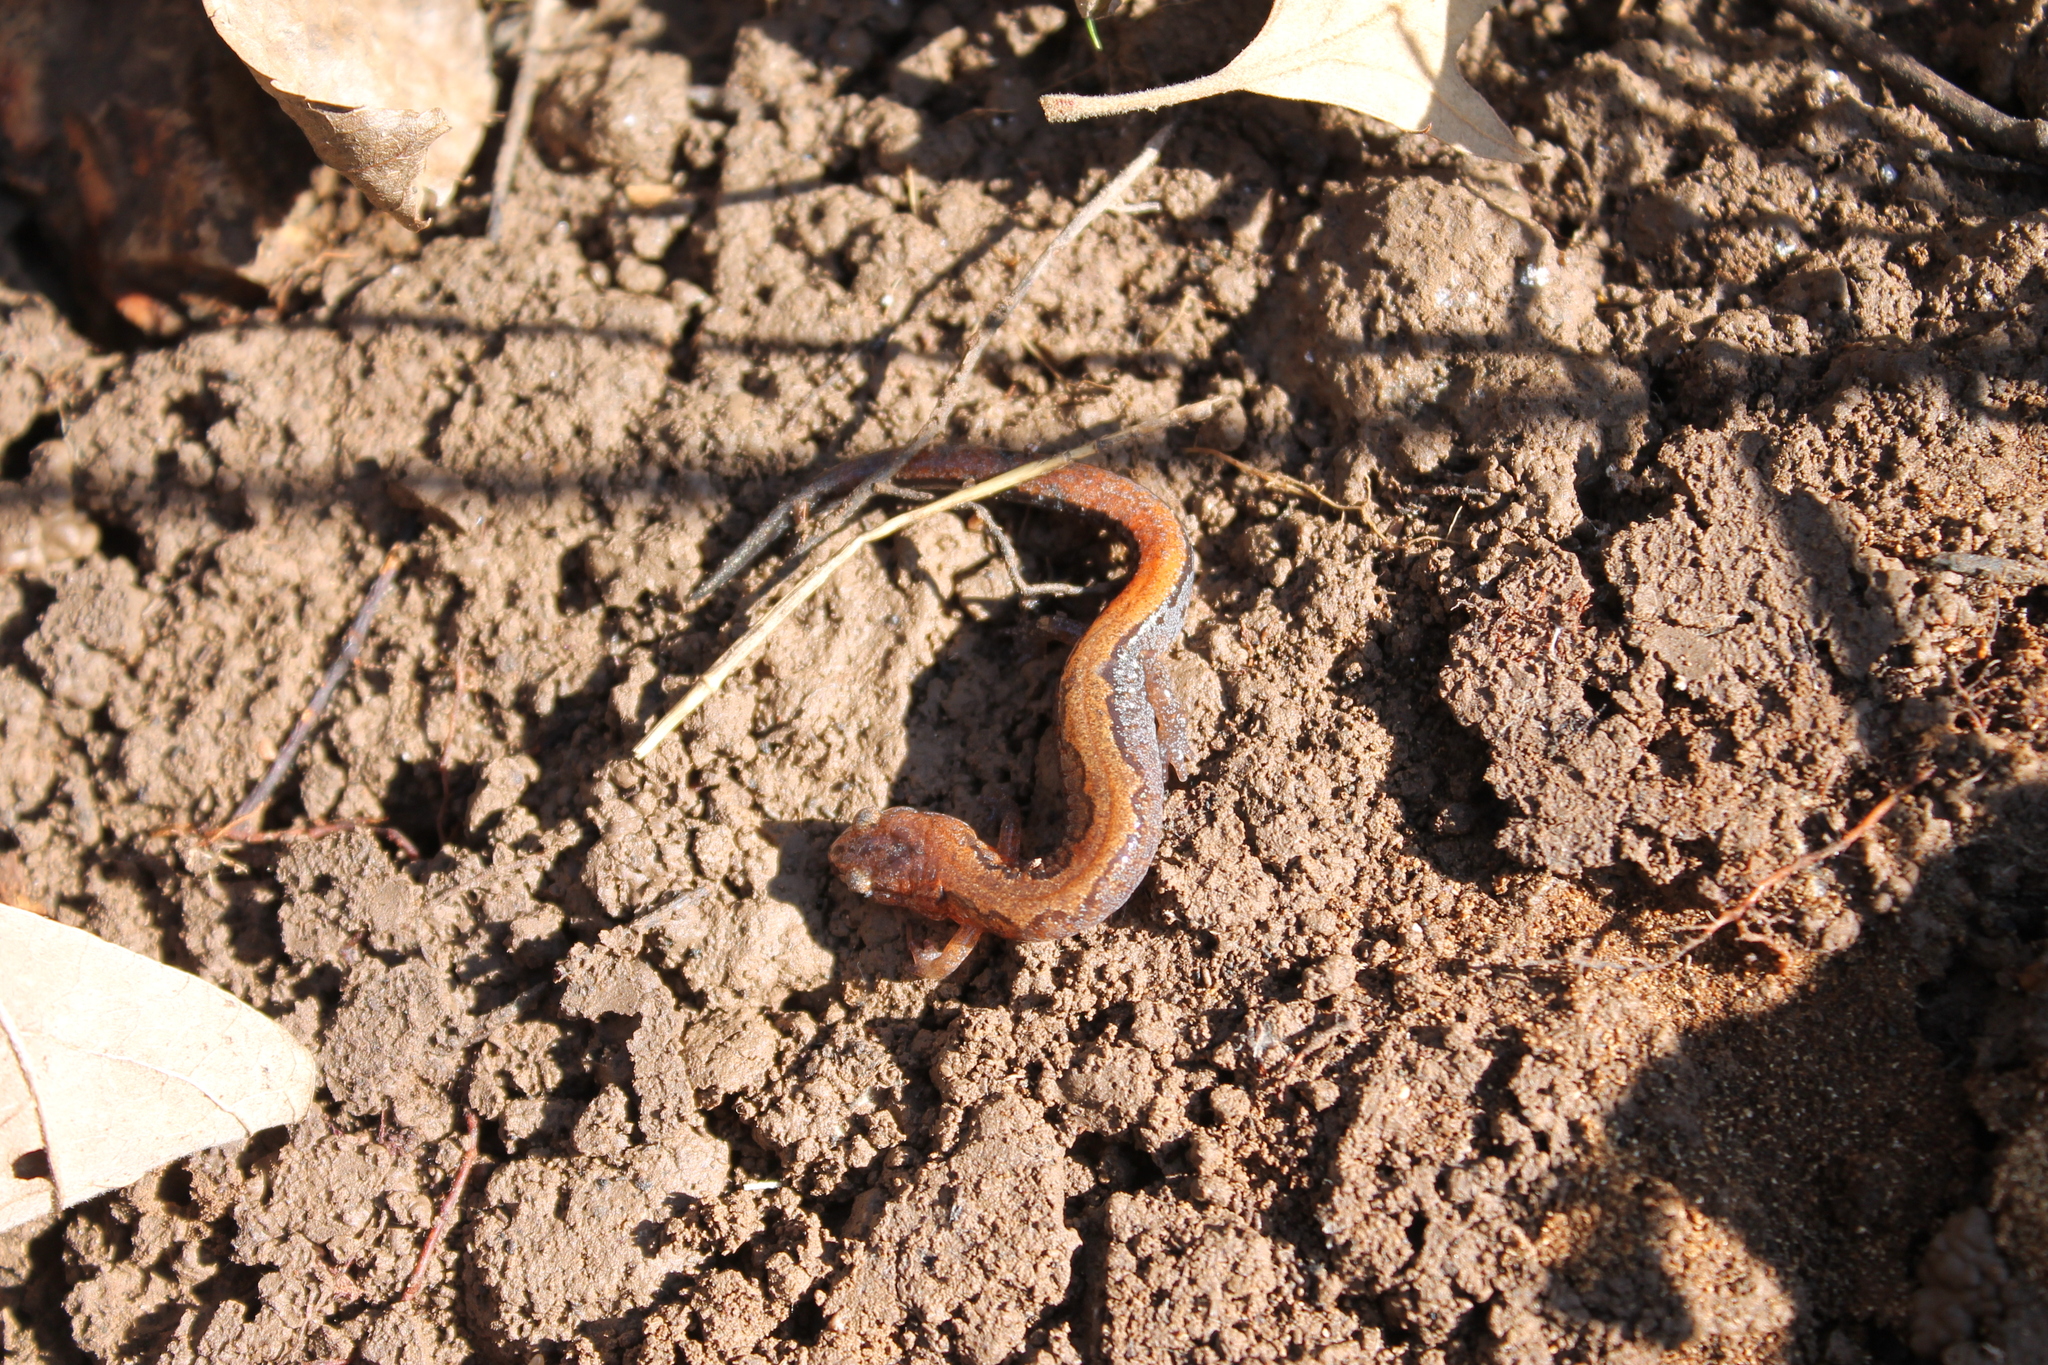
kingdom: Animalia
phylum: Chordata
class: Amphibia
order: Caudata
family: Plethodontidae
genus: Plethodon
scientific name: Plethodon dorsalis
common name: Northern zigzag salamander
